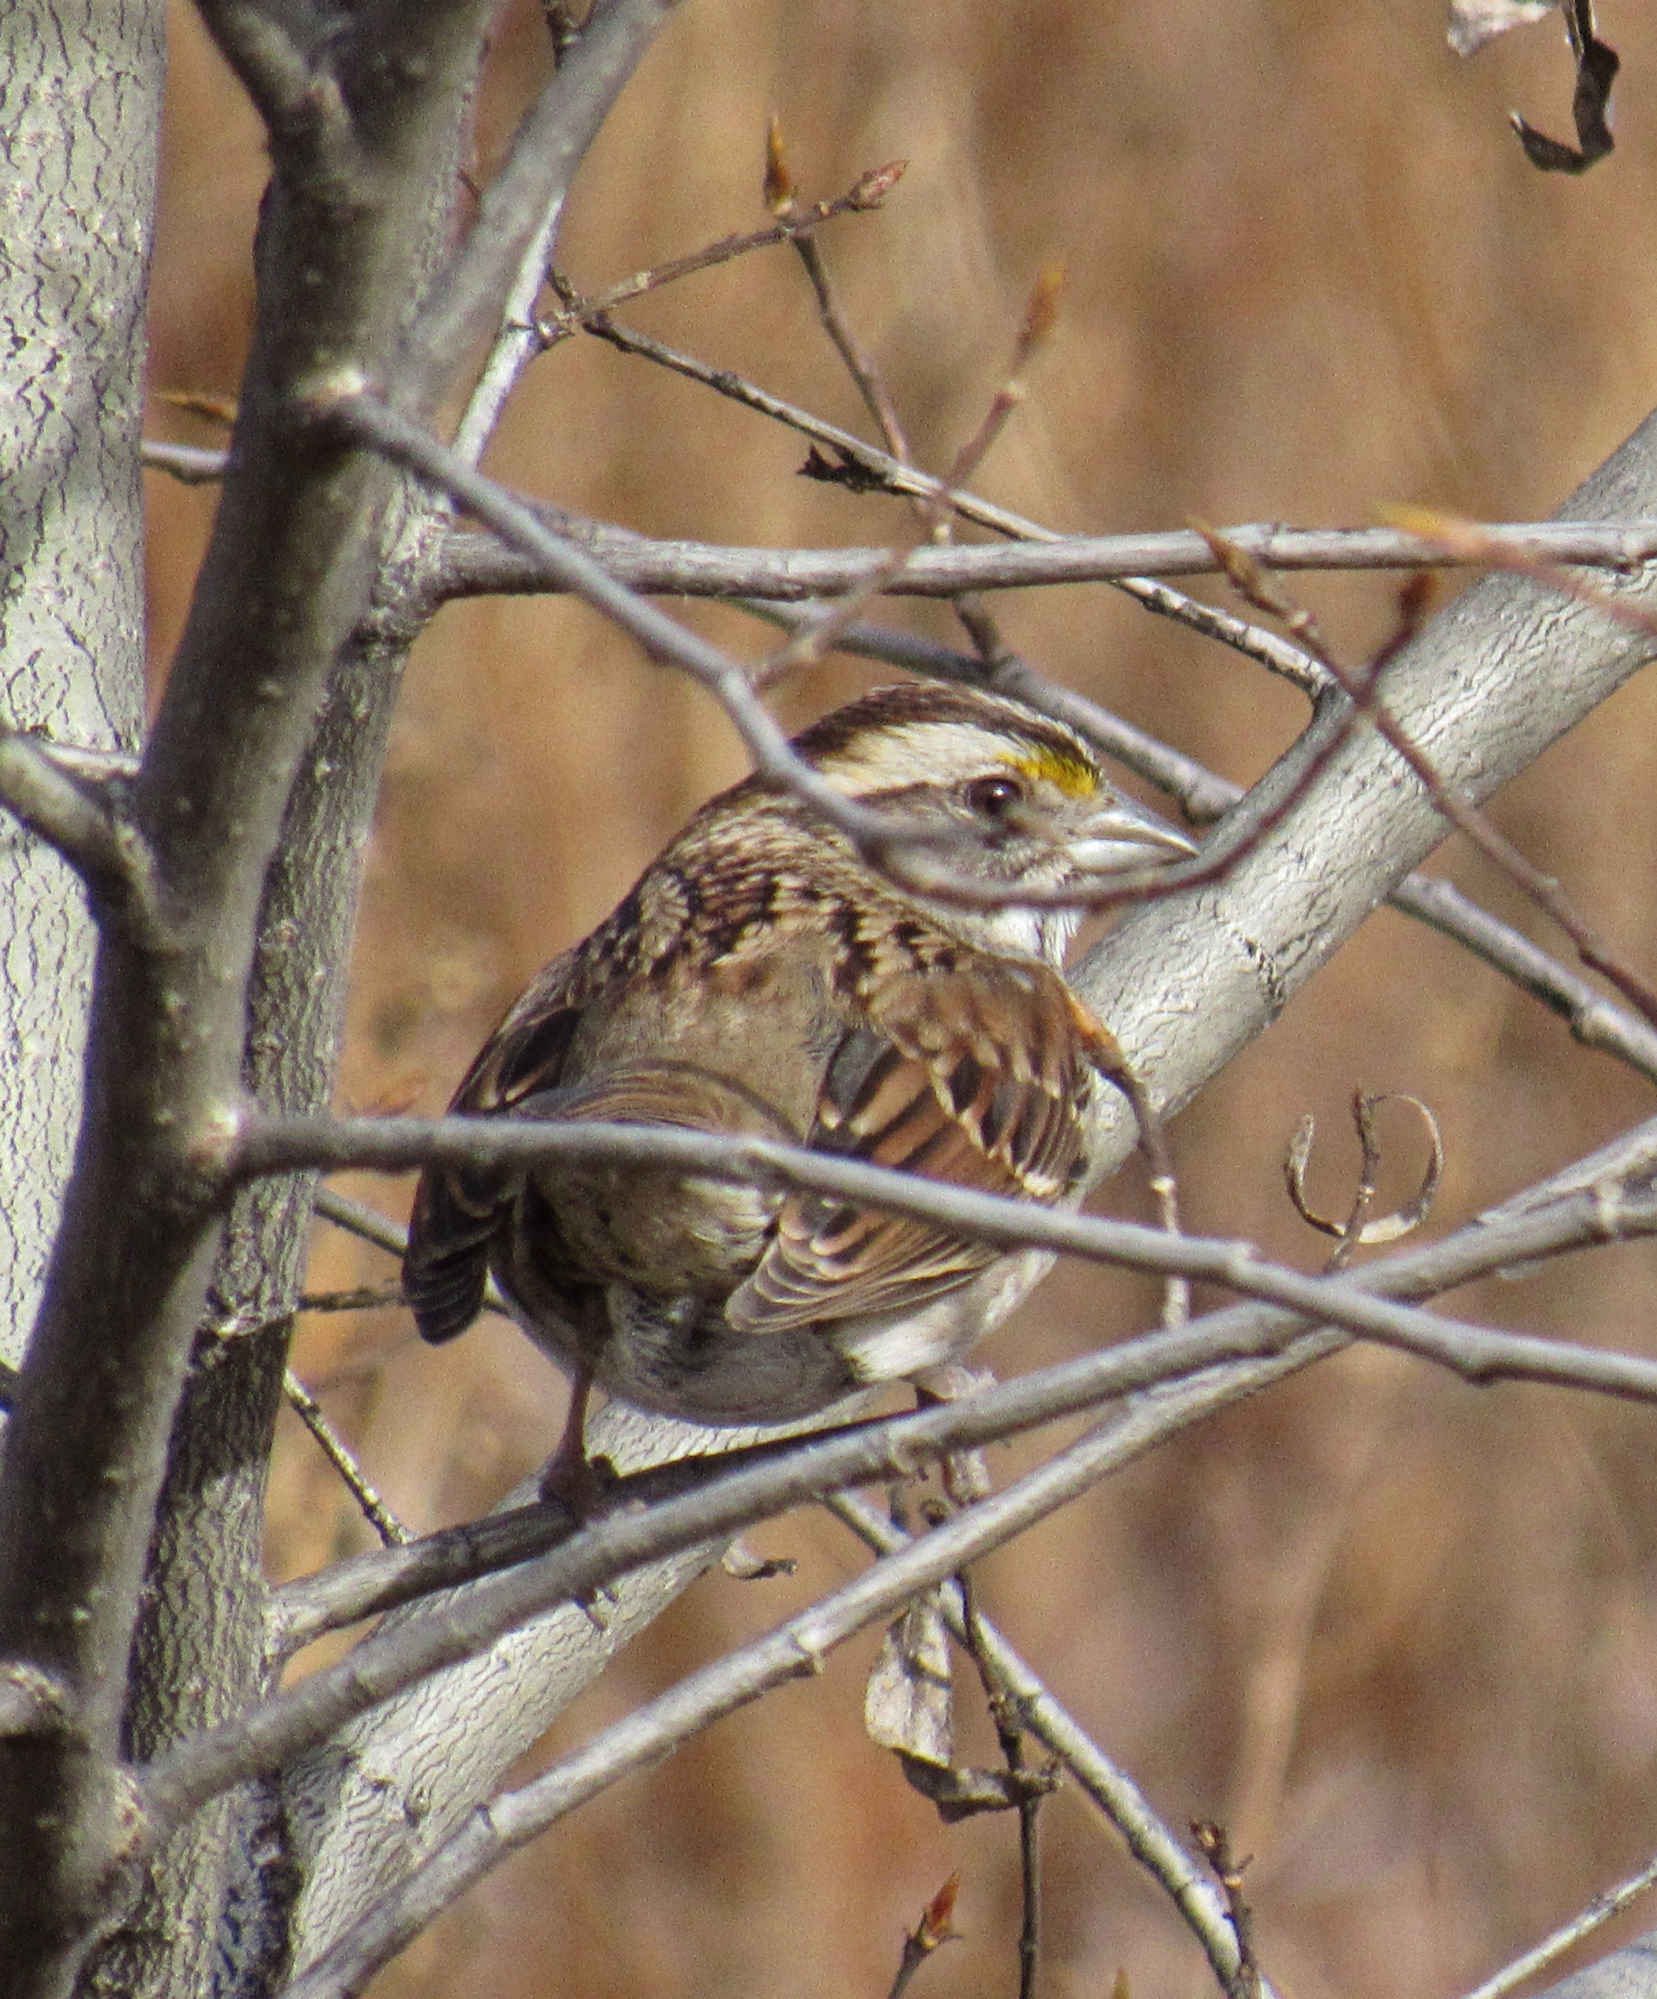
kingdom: Animalia
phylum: Chordata
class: Aves
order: Passeriformes
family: Passerellidae
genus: Zonotrichia
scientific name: Zonotrichia albicollis
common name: White-throated sparrow
